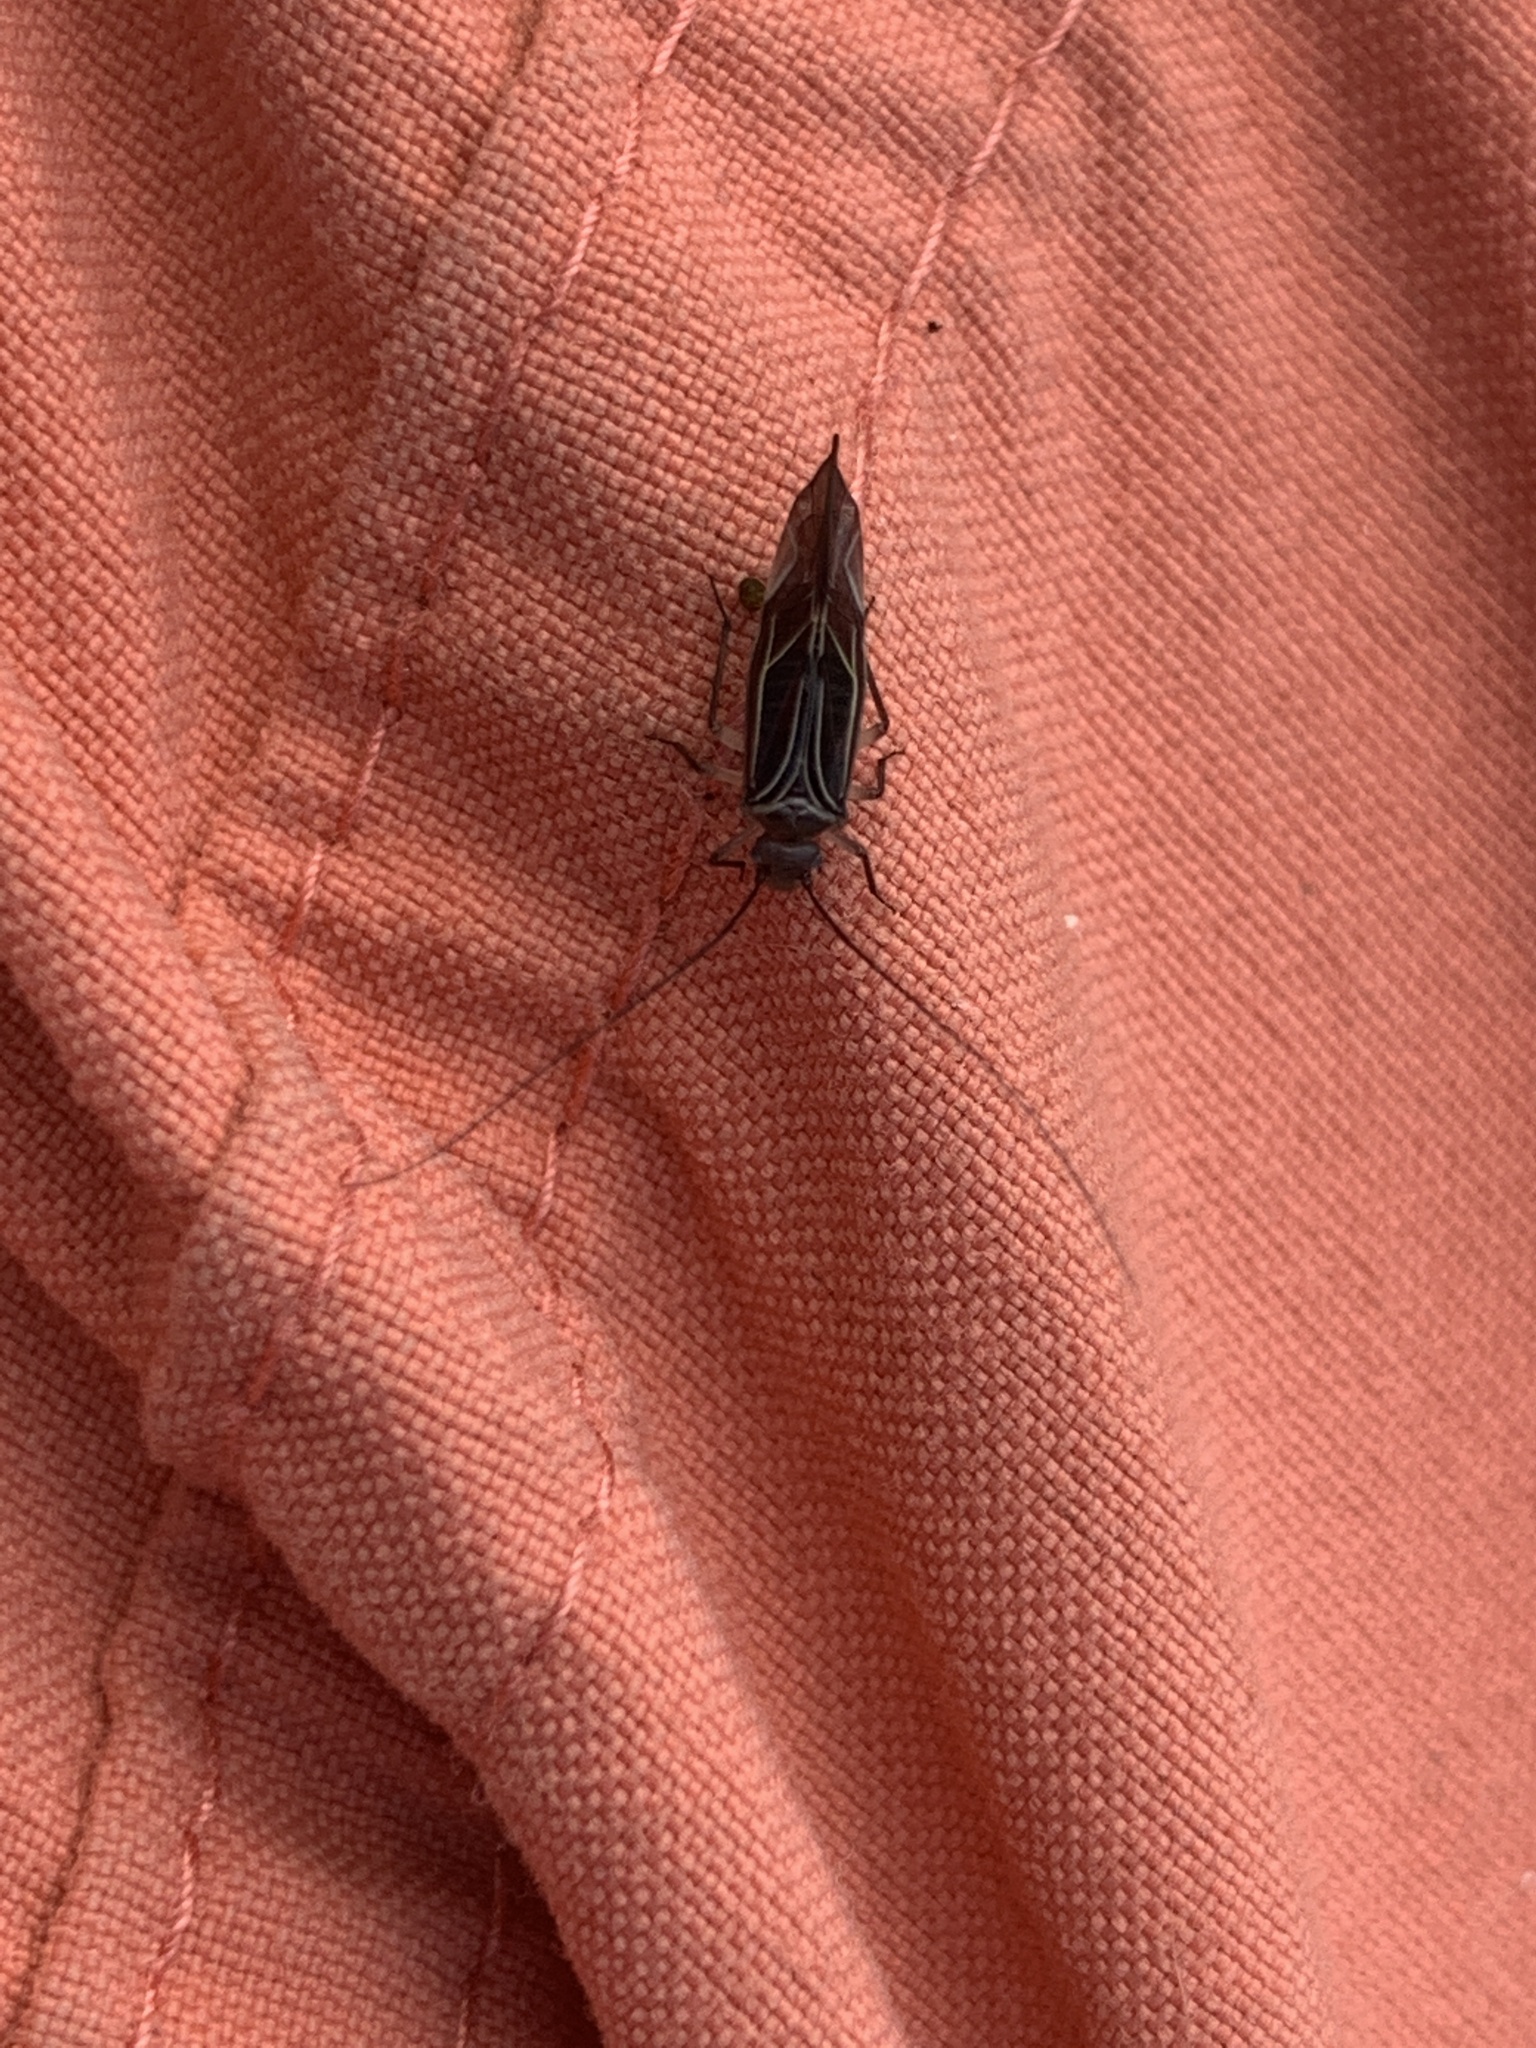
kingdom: Animalia
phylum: Arthropoda
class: Insecta
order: Psocodea
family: Psocidae
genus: Cerastipsocus
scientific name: Cerastipsocus venosus
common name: Tree cattle
